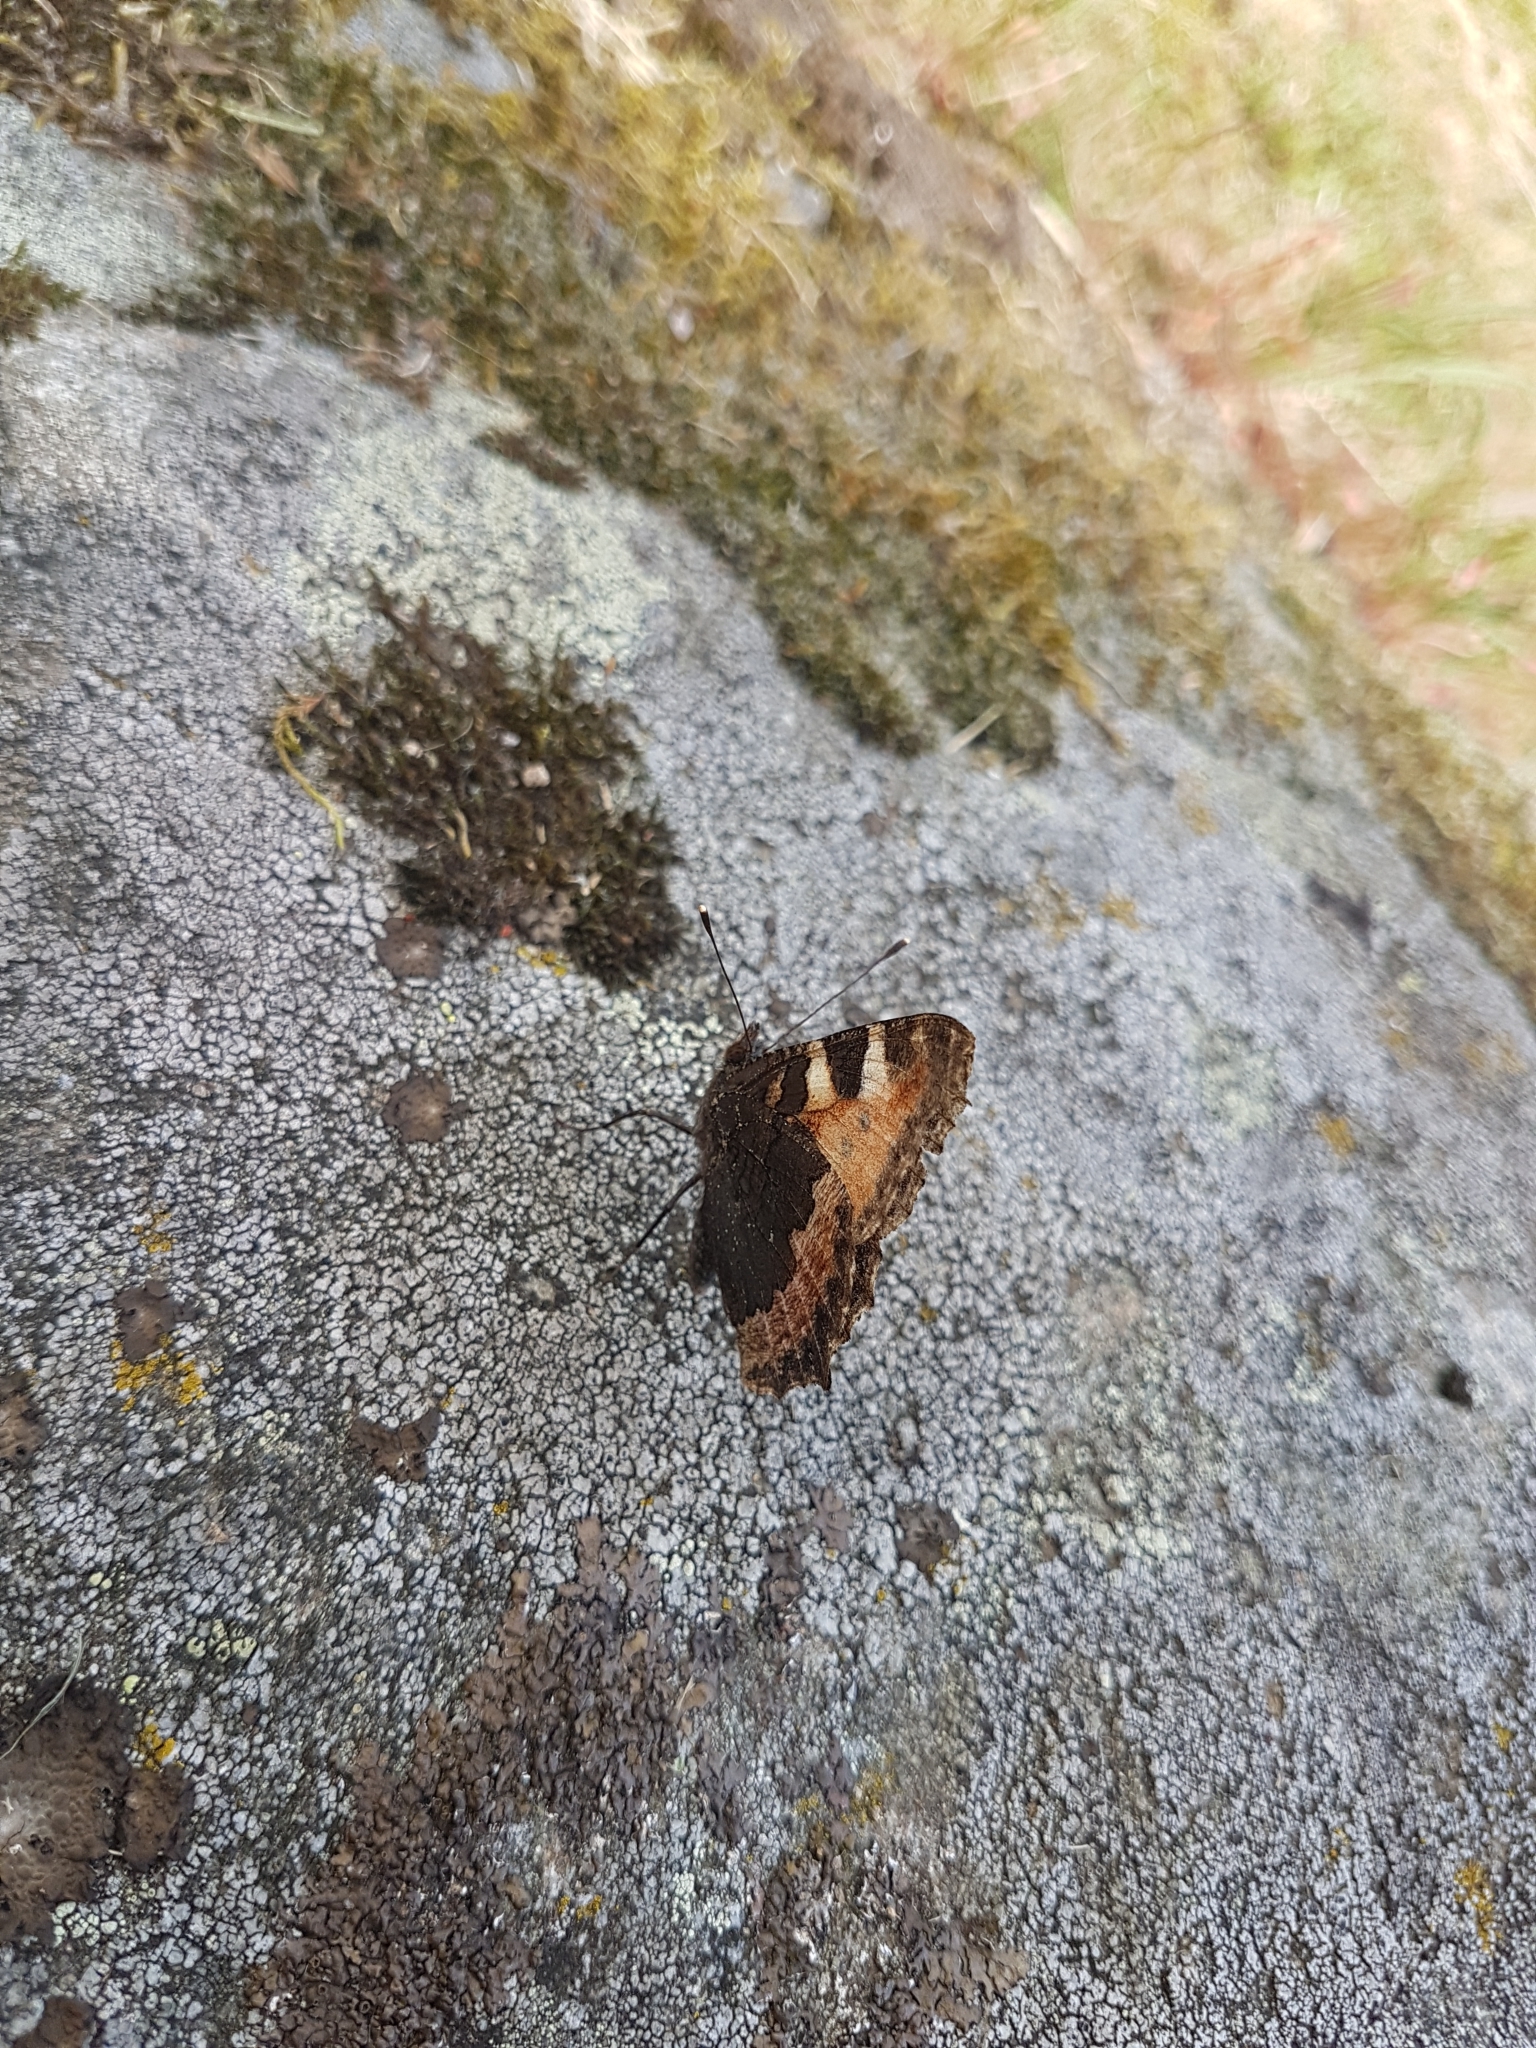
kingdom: Animalia
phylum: Arthropoda
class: Insecta
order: Lepidoptera
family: Nymphalidae
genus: Aglais
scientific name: Aglais urticae
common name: Small tortoiseshell
